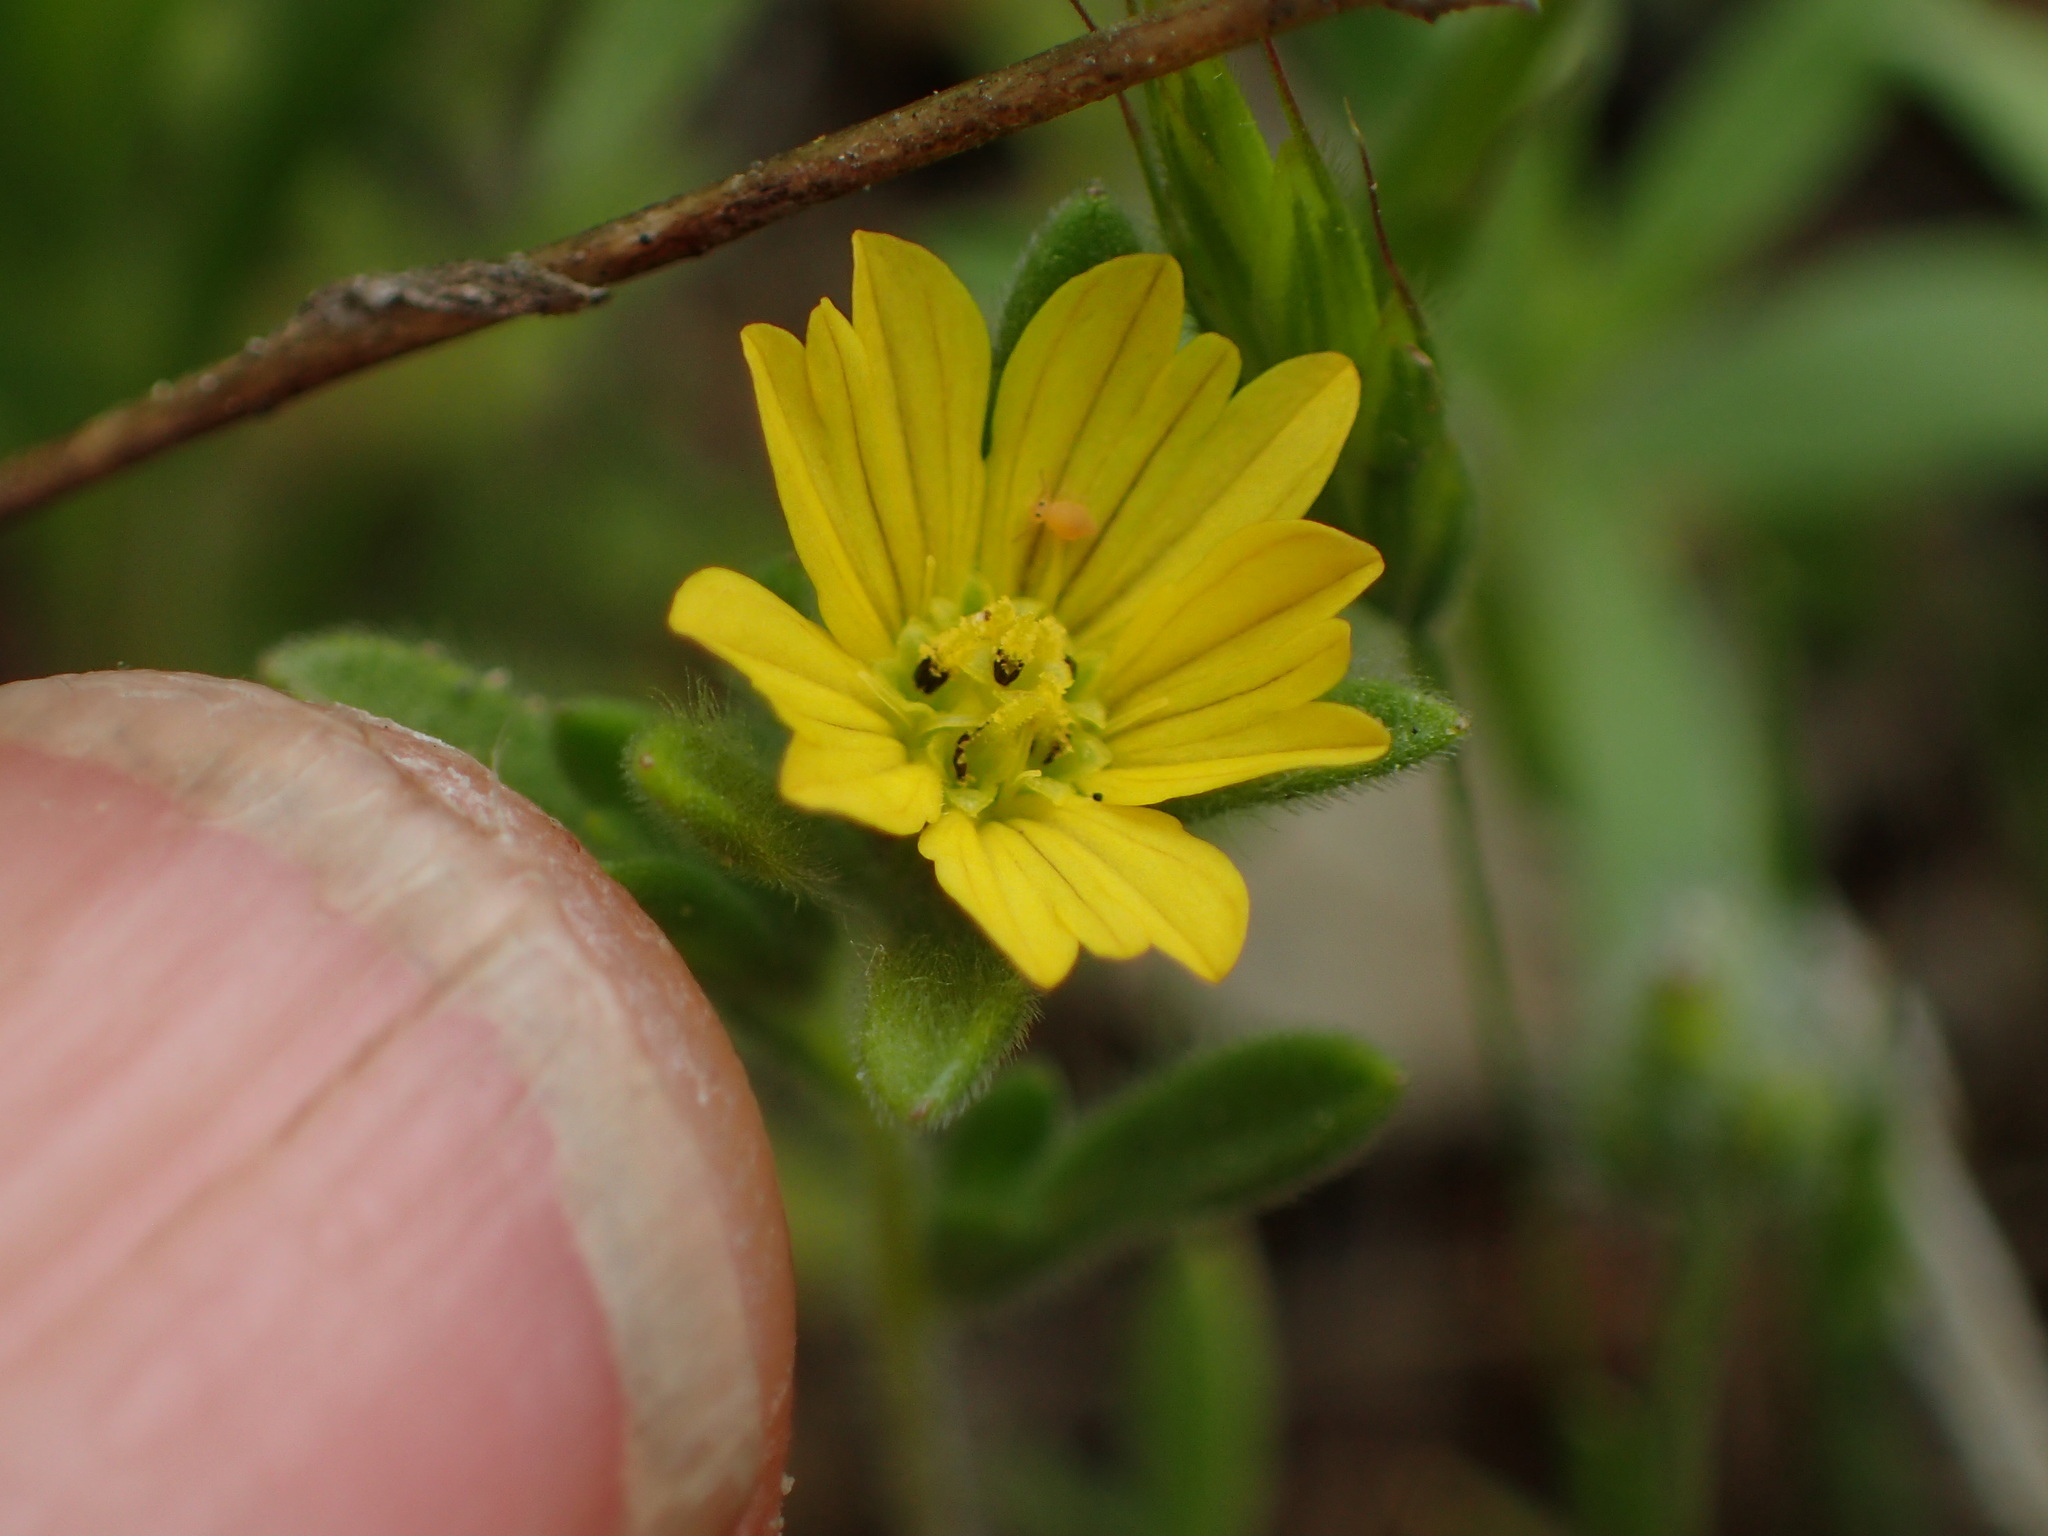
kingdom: Plantae
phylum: Tracheophyta
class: Magnoliopsida
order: Asterales
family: Asteraceae
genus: Lagophylla
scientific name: Lagophylla ramosissima
